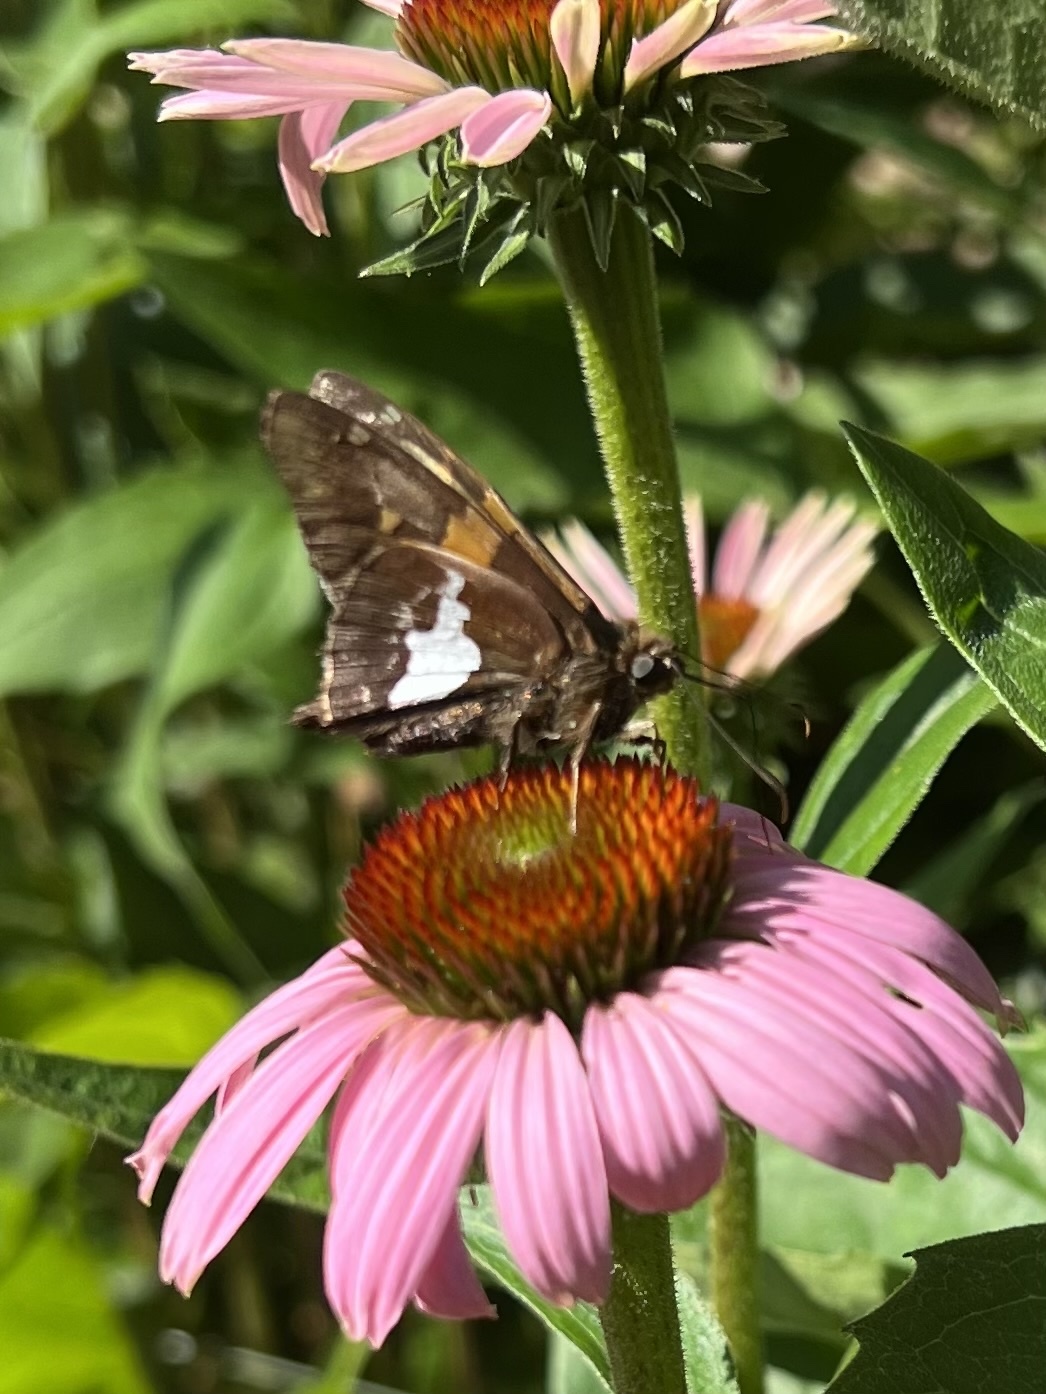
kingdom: Animalia
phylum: Arthropoda
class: Insecta
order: Lepidoptera
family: Hesperiidae
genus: Epargyreus
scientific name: Epargyreus clarus
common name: Silver-spotted skipper
